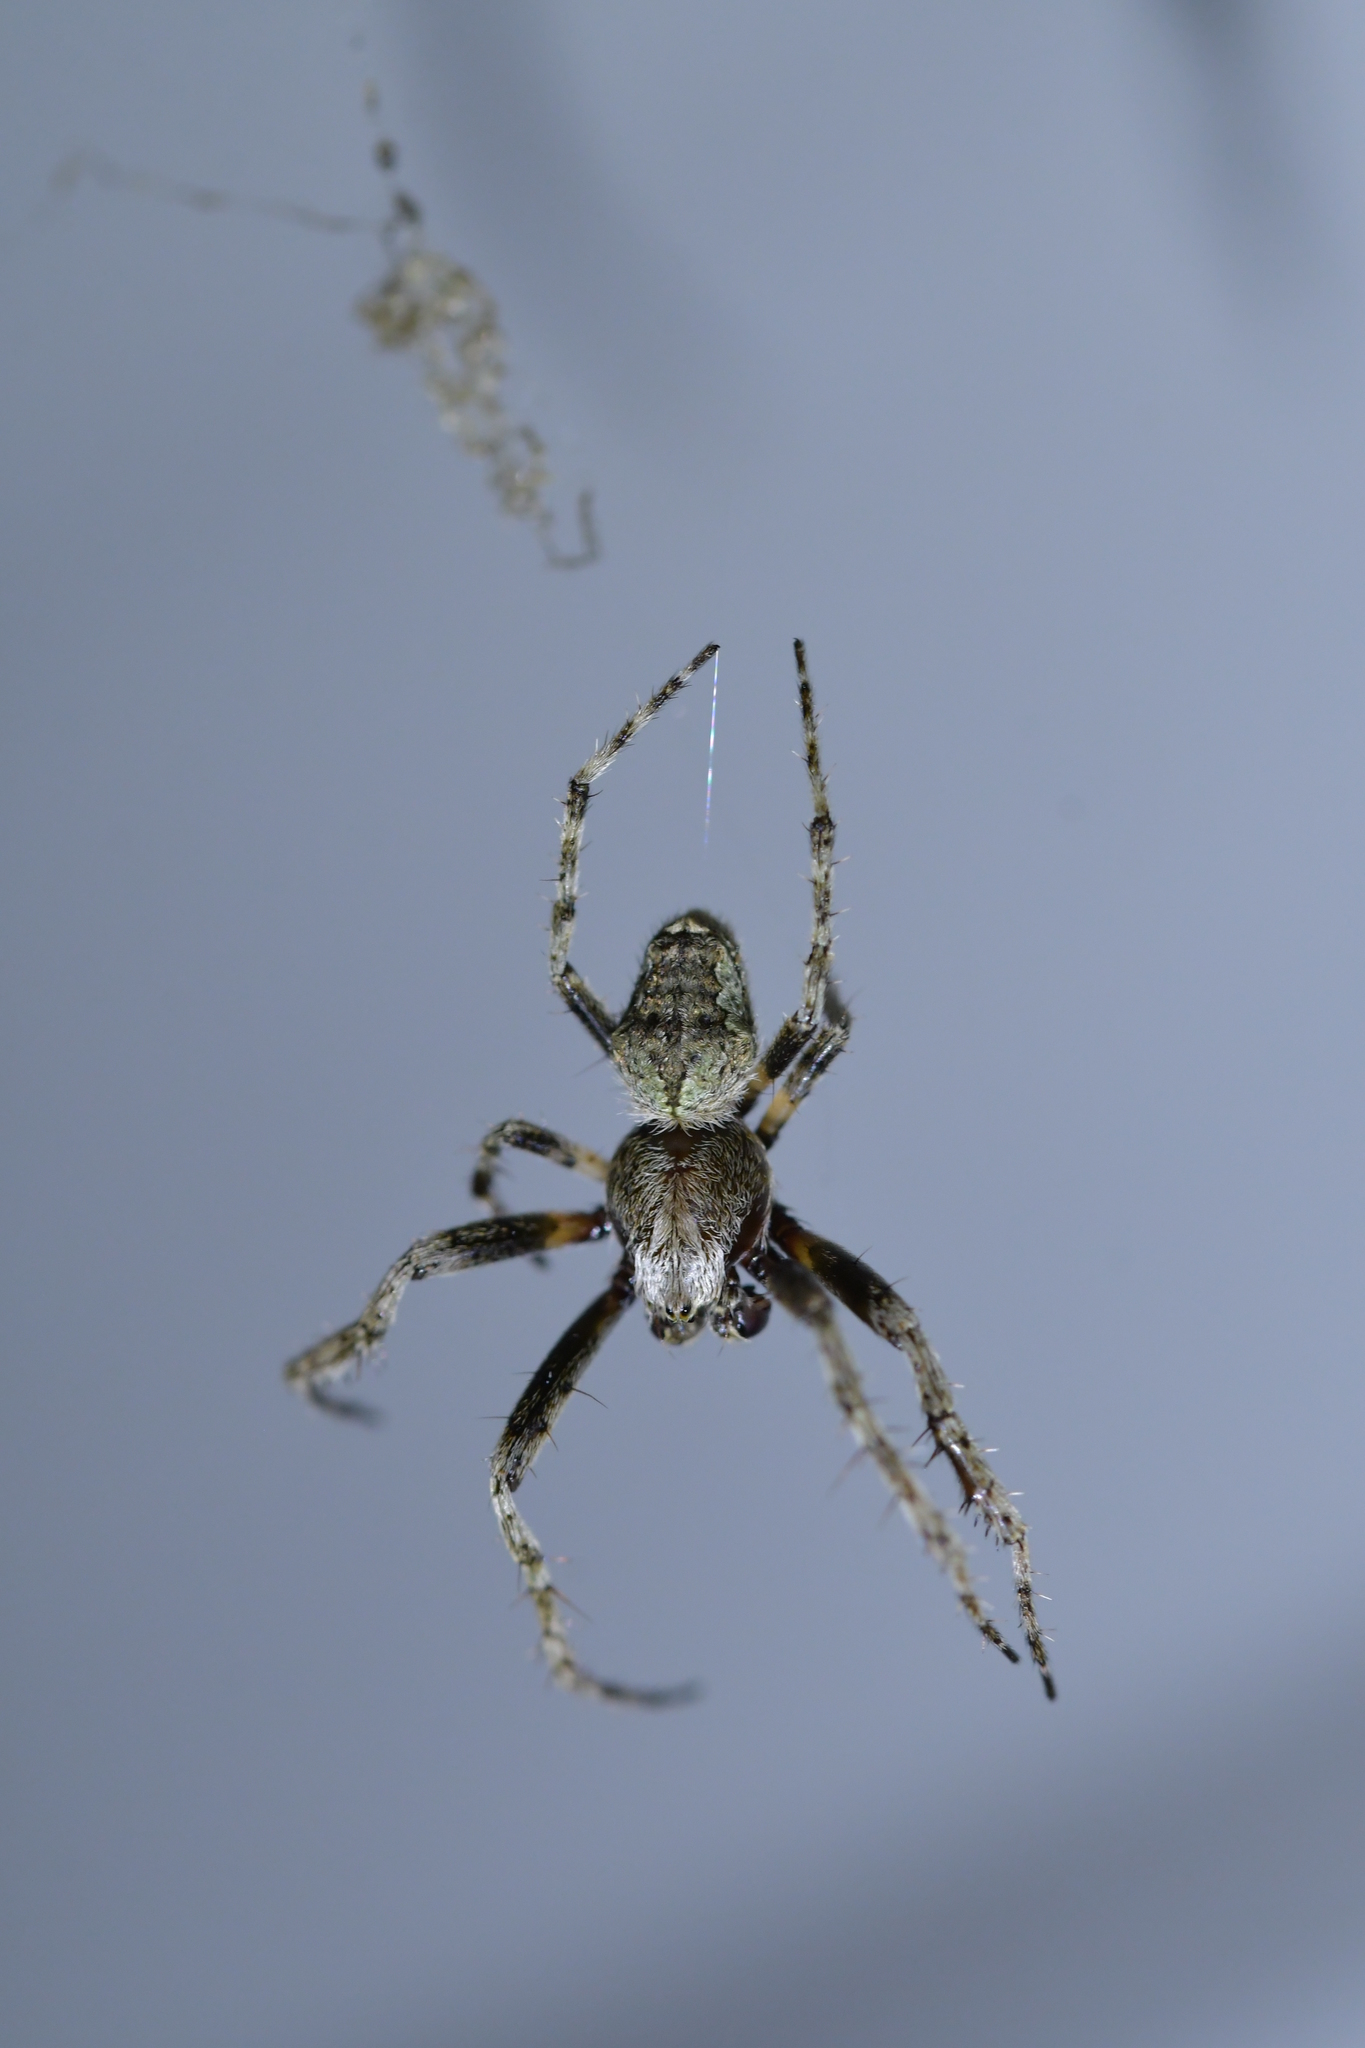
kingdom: Animalia
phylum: Arthropoda
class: Arachnida
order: Araneae
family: Araneidae
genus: Eriophora
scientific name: Eriophora pustulosa
